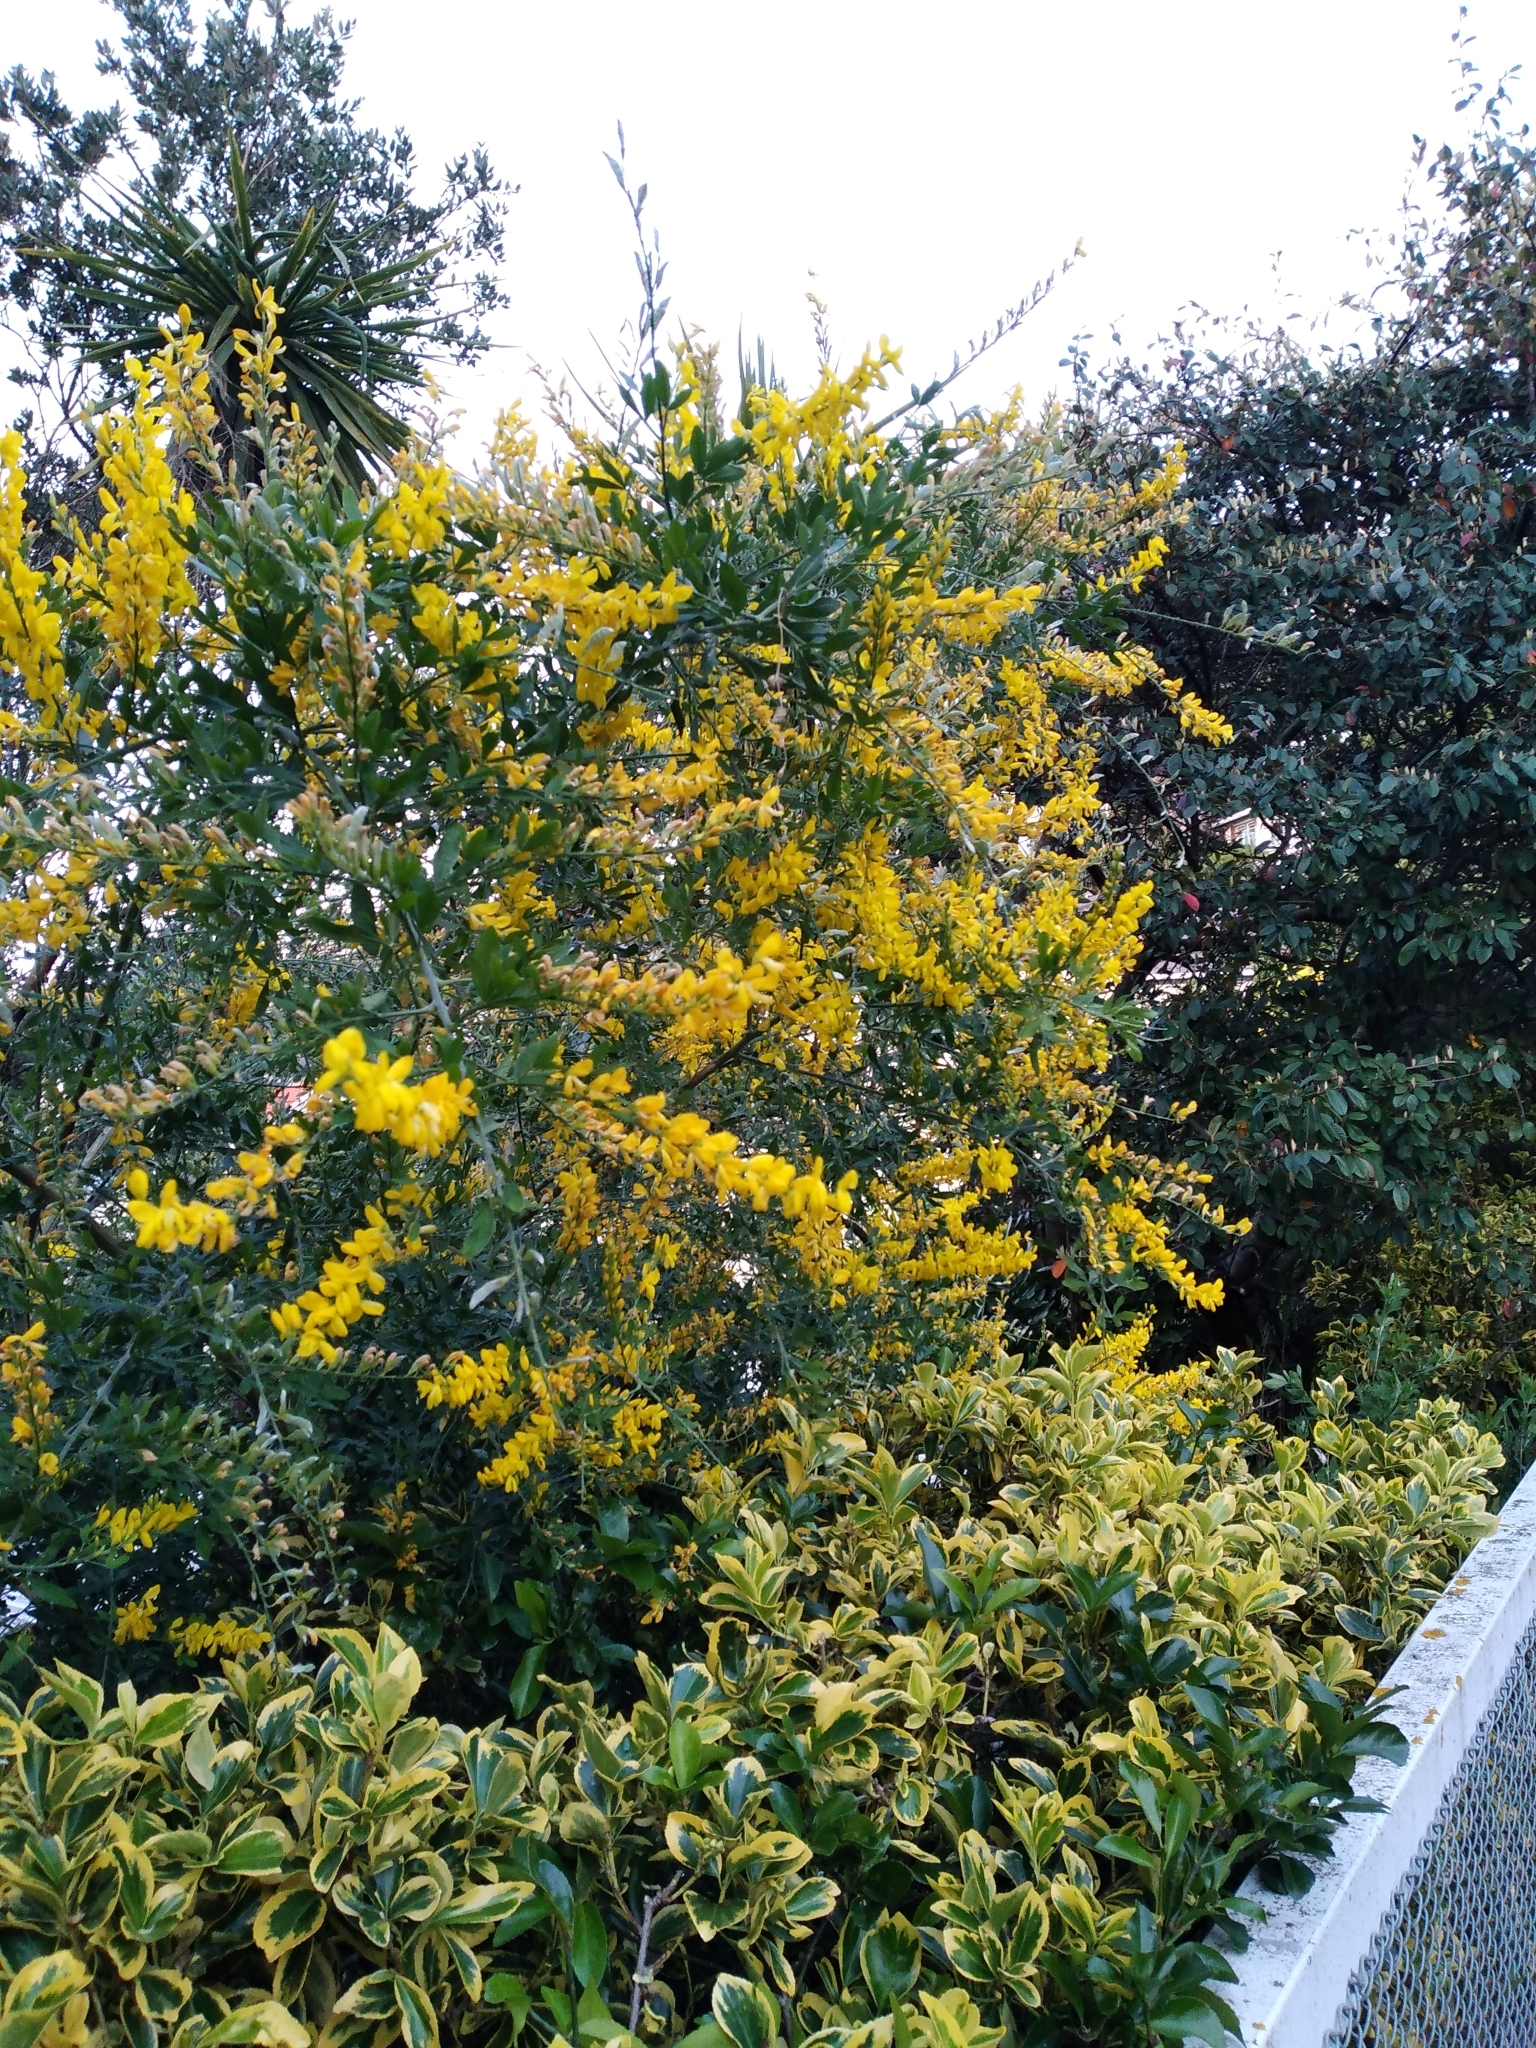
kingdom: Plantae
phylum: Tracheophyta
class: Magnoliopsida
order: Fabales
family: Fabaceae
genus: Genista
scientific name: Genista stenopetala
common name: Leafy broom
